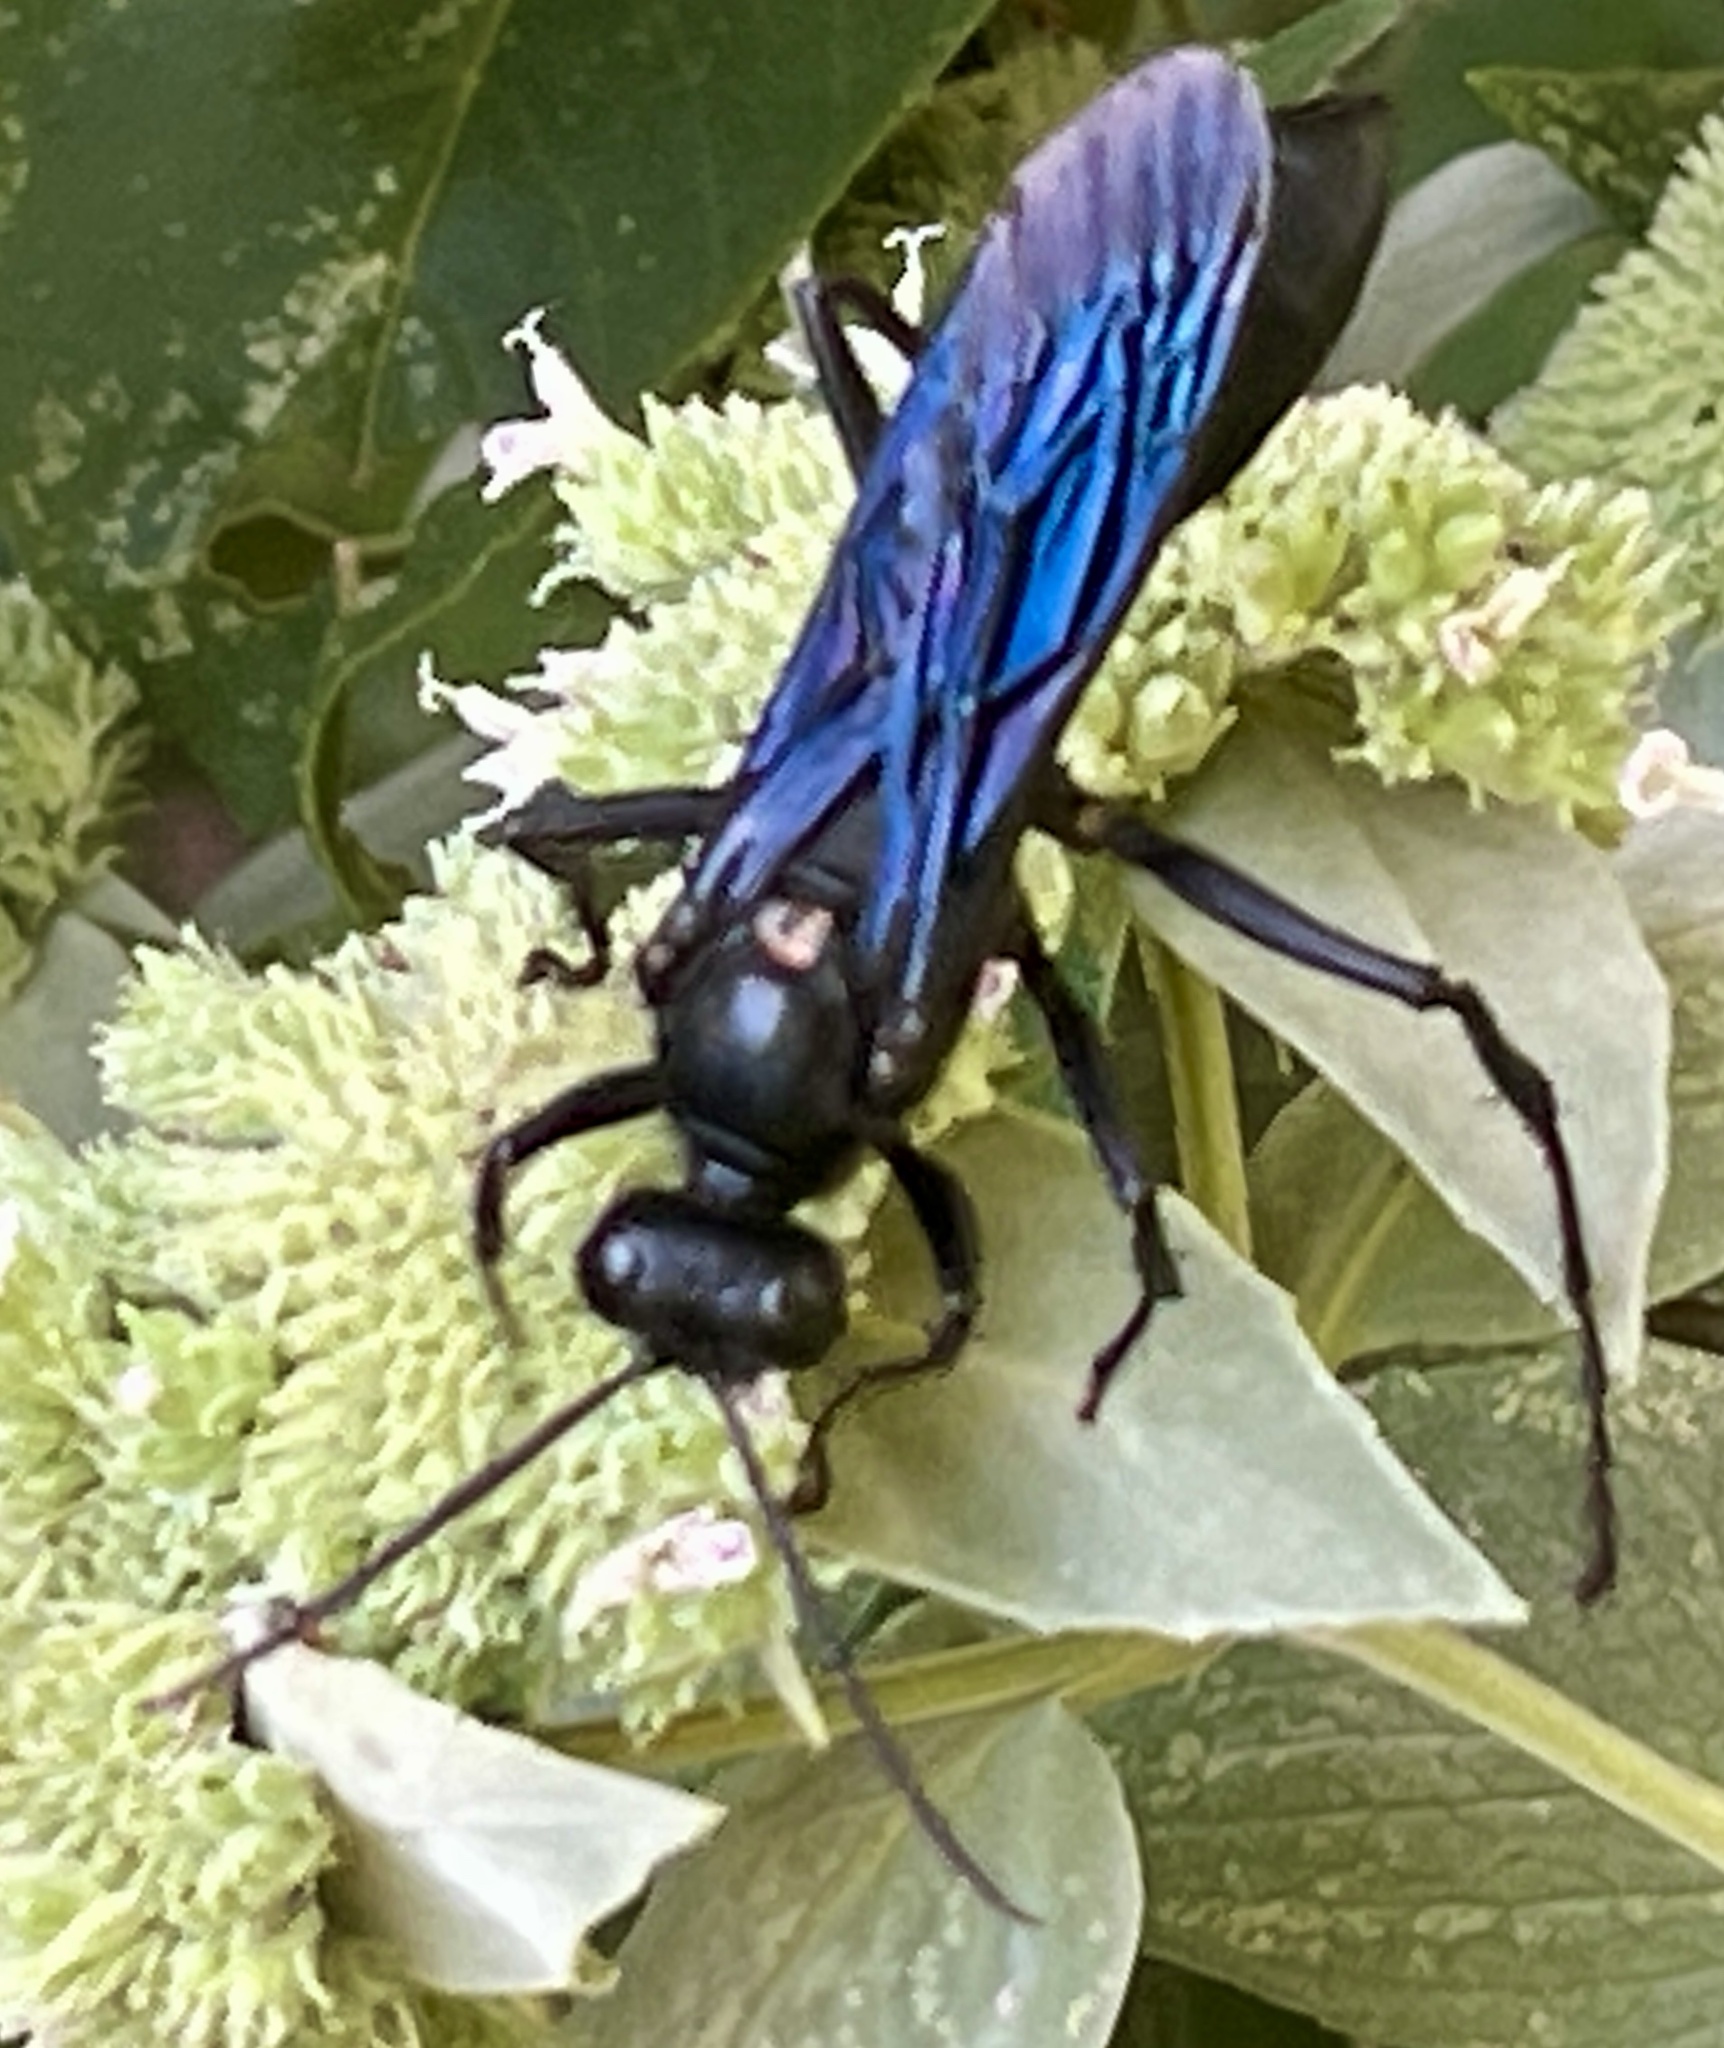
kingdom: Animalia
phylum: Arthropoda
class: Insecta
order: Hymenoptera
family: Sphecidae
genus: Sphex
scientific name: Sphex pensylvanicus
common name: Great black digger wasp
